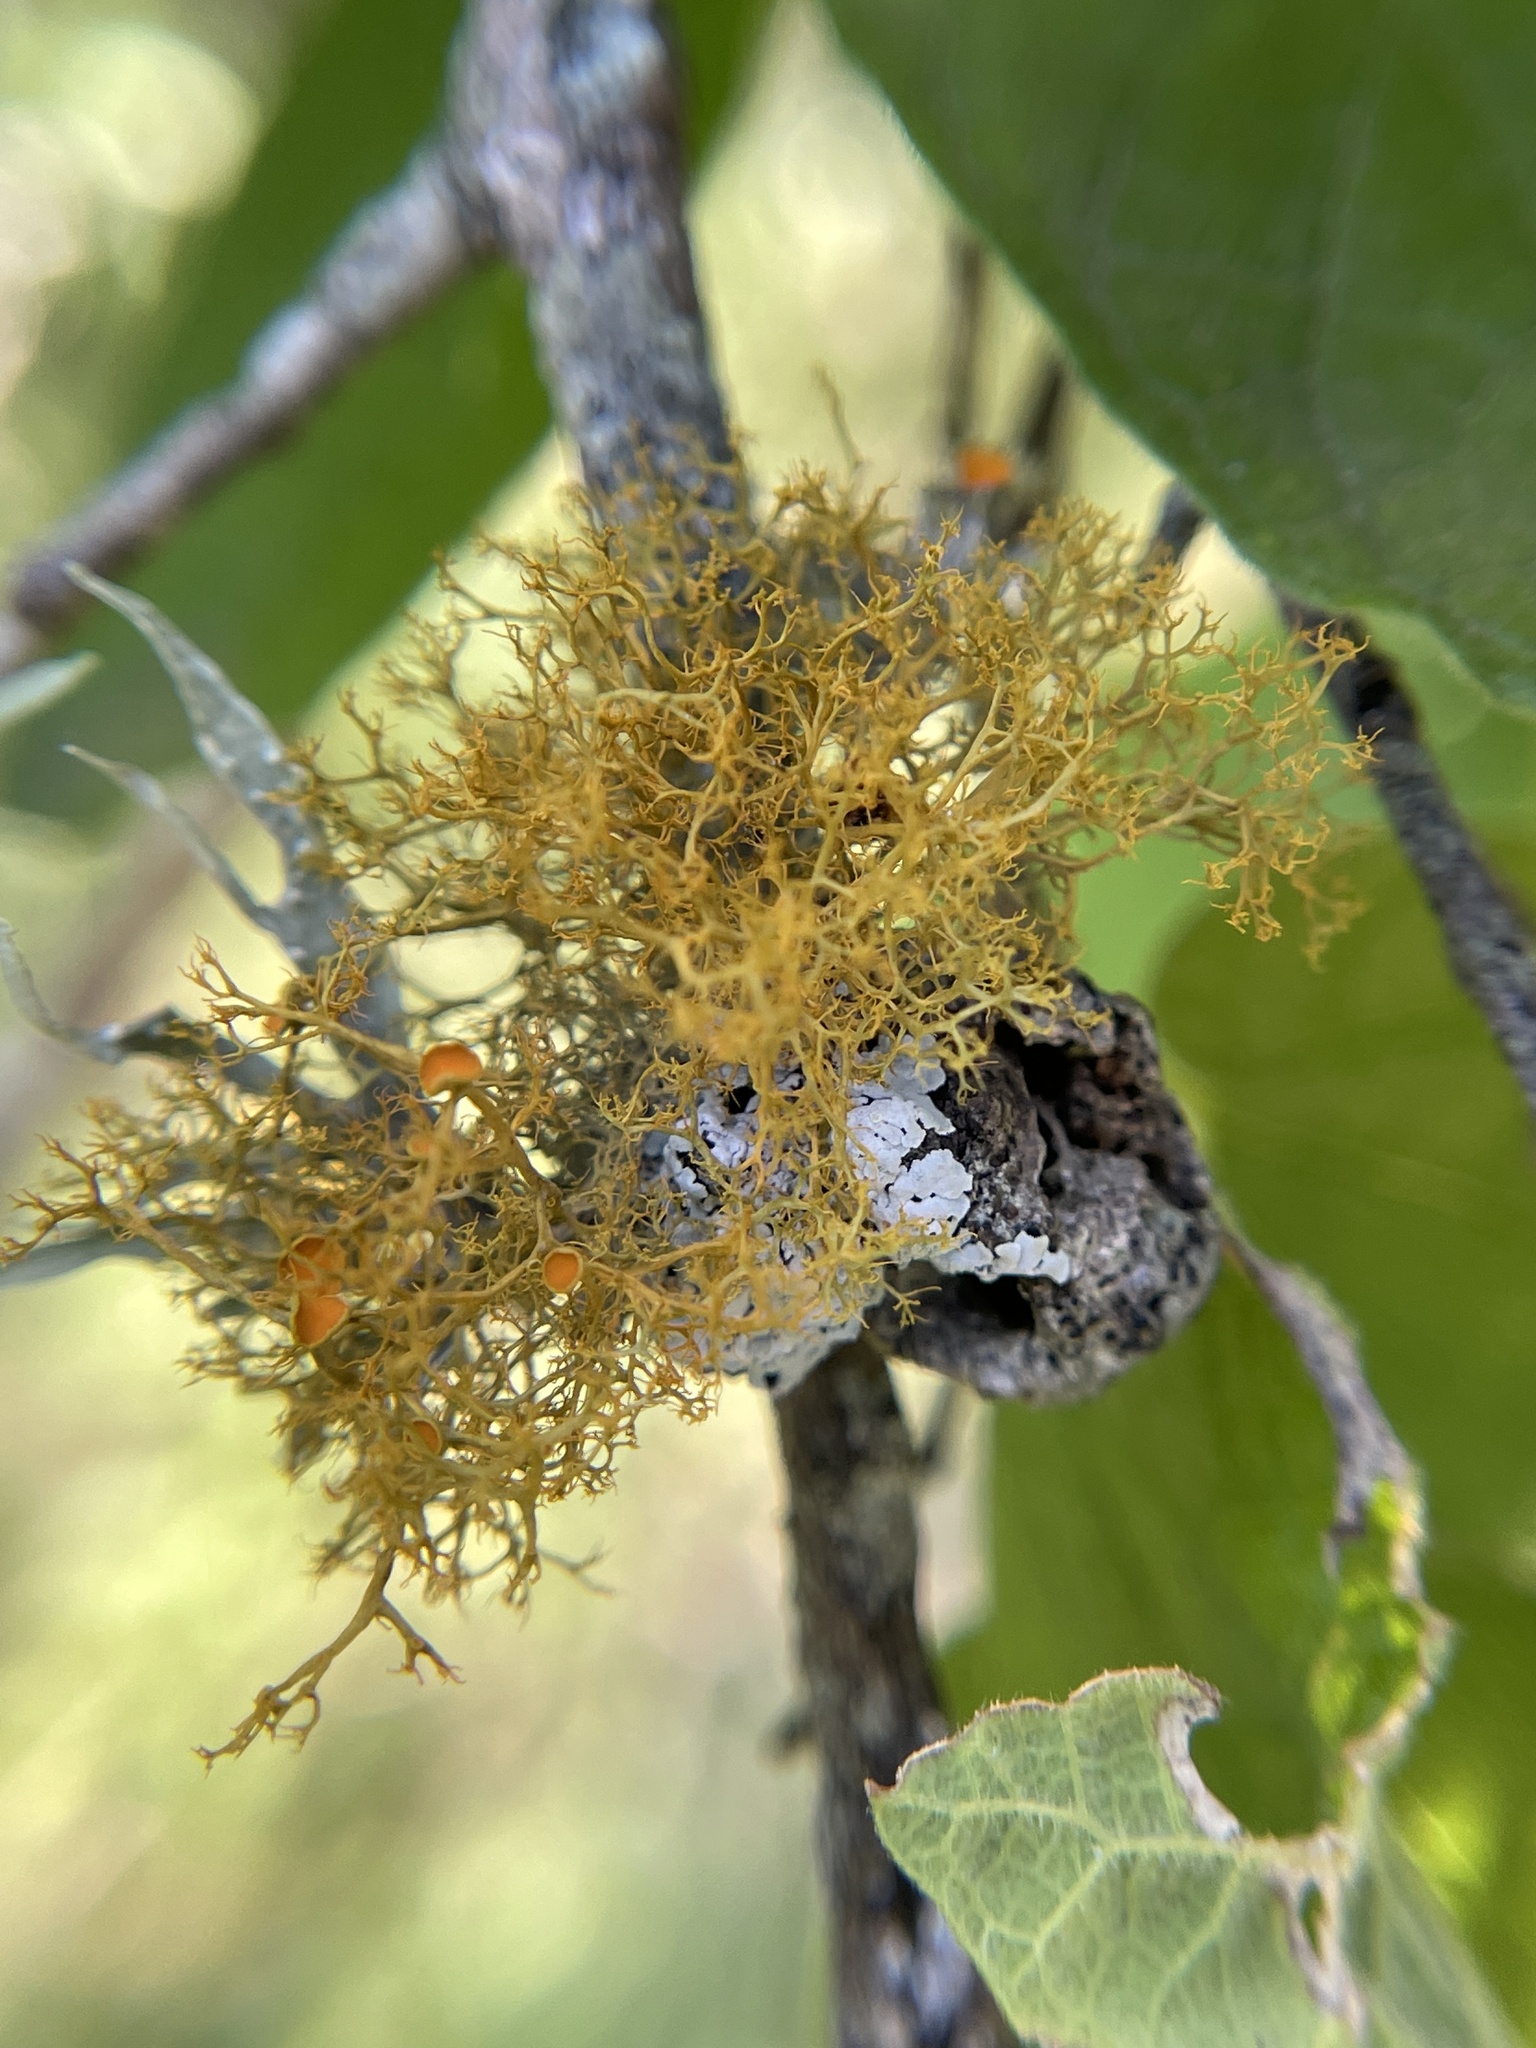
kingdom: Fungi
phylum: Ascomycota
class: Lecanoromycetes
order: Teloschistales
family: Teloschistaceae
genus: Teloschistes
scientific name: Teloschistes exilis
